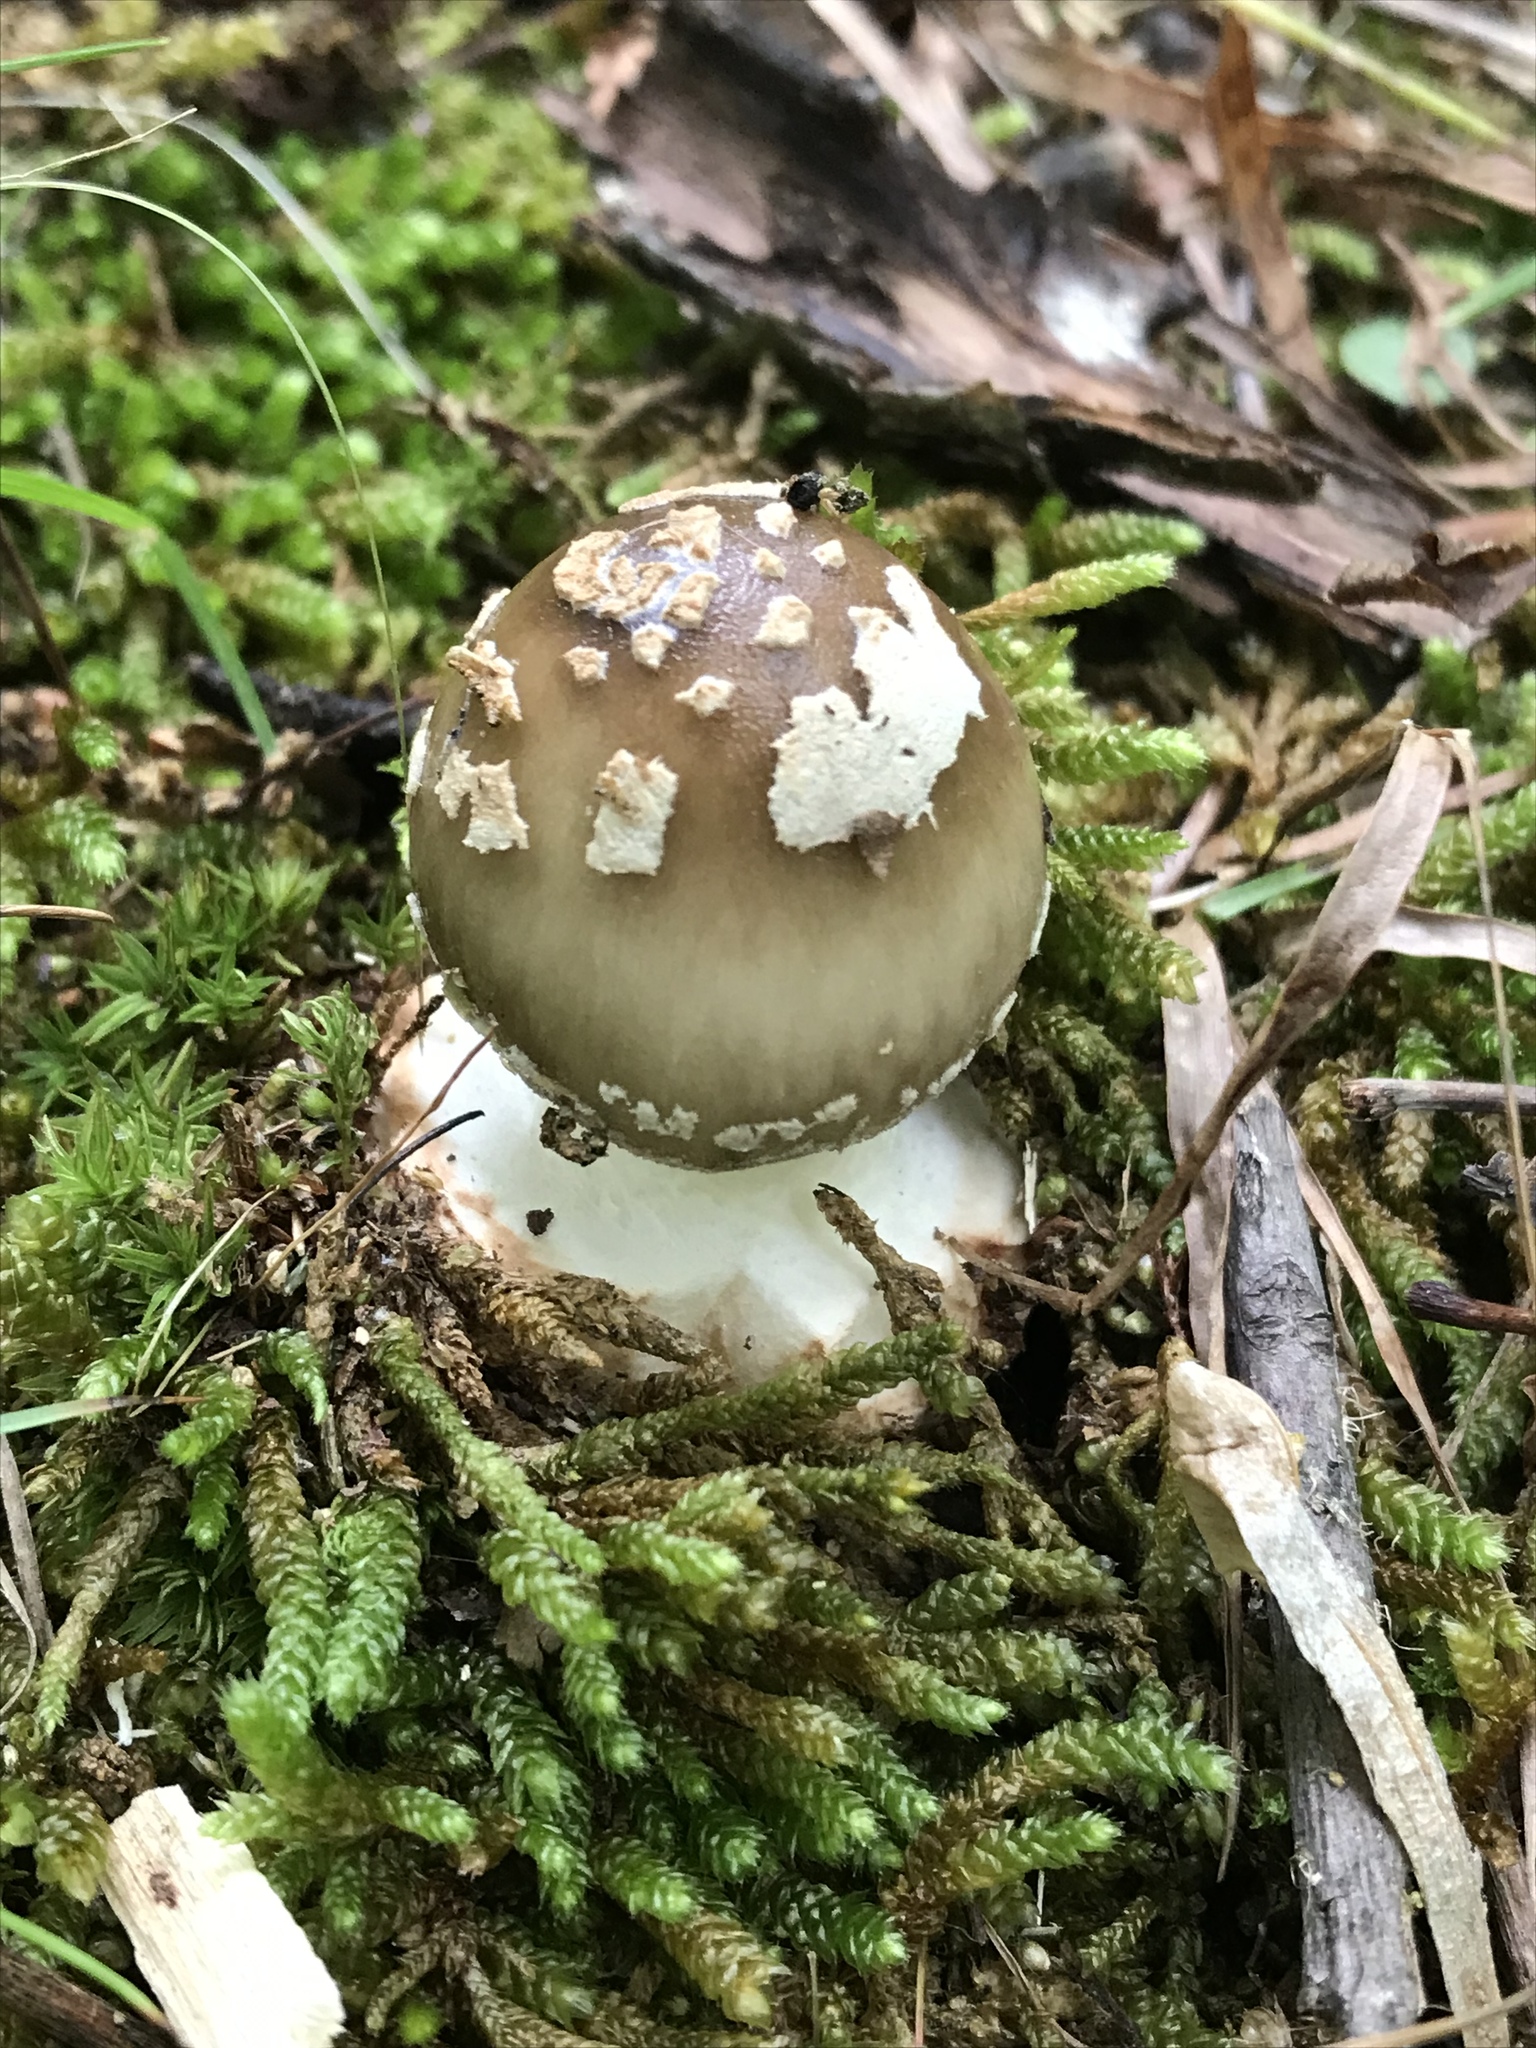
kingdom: Fungi
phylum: Basidiomycota
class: Agaricomycetes
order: Agaricales
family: Amanitaceae
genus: Amanita
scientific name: Amanita brunnescens
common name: Brown american star-footed amanita
